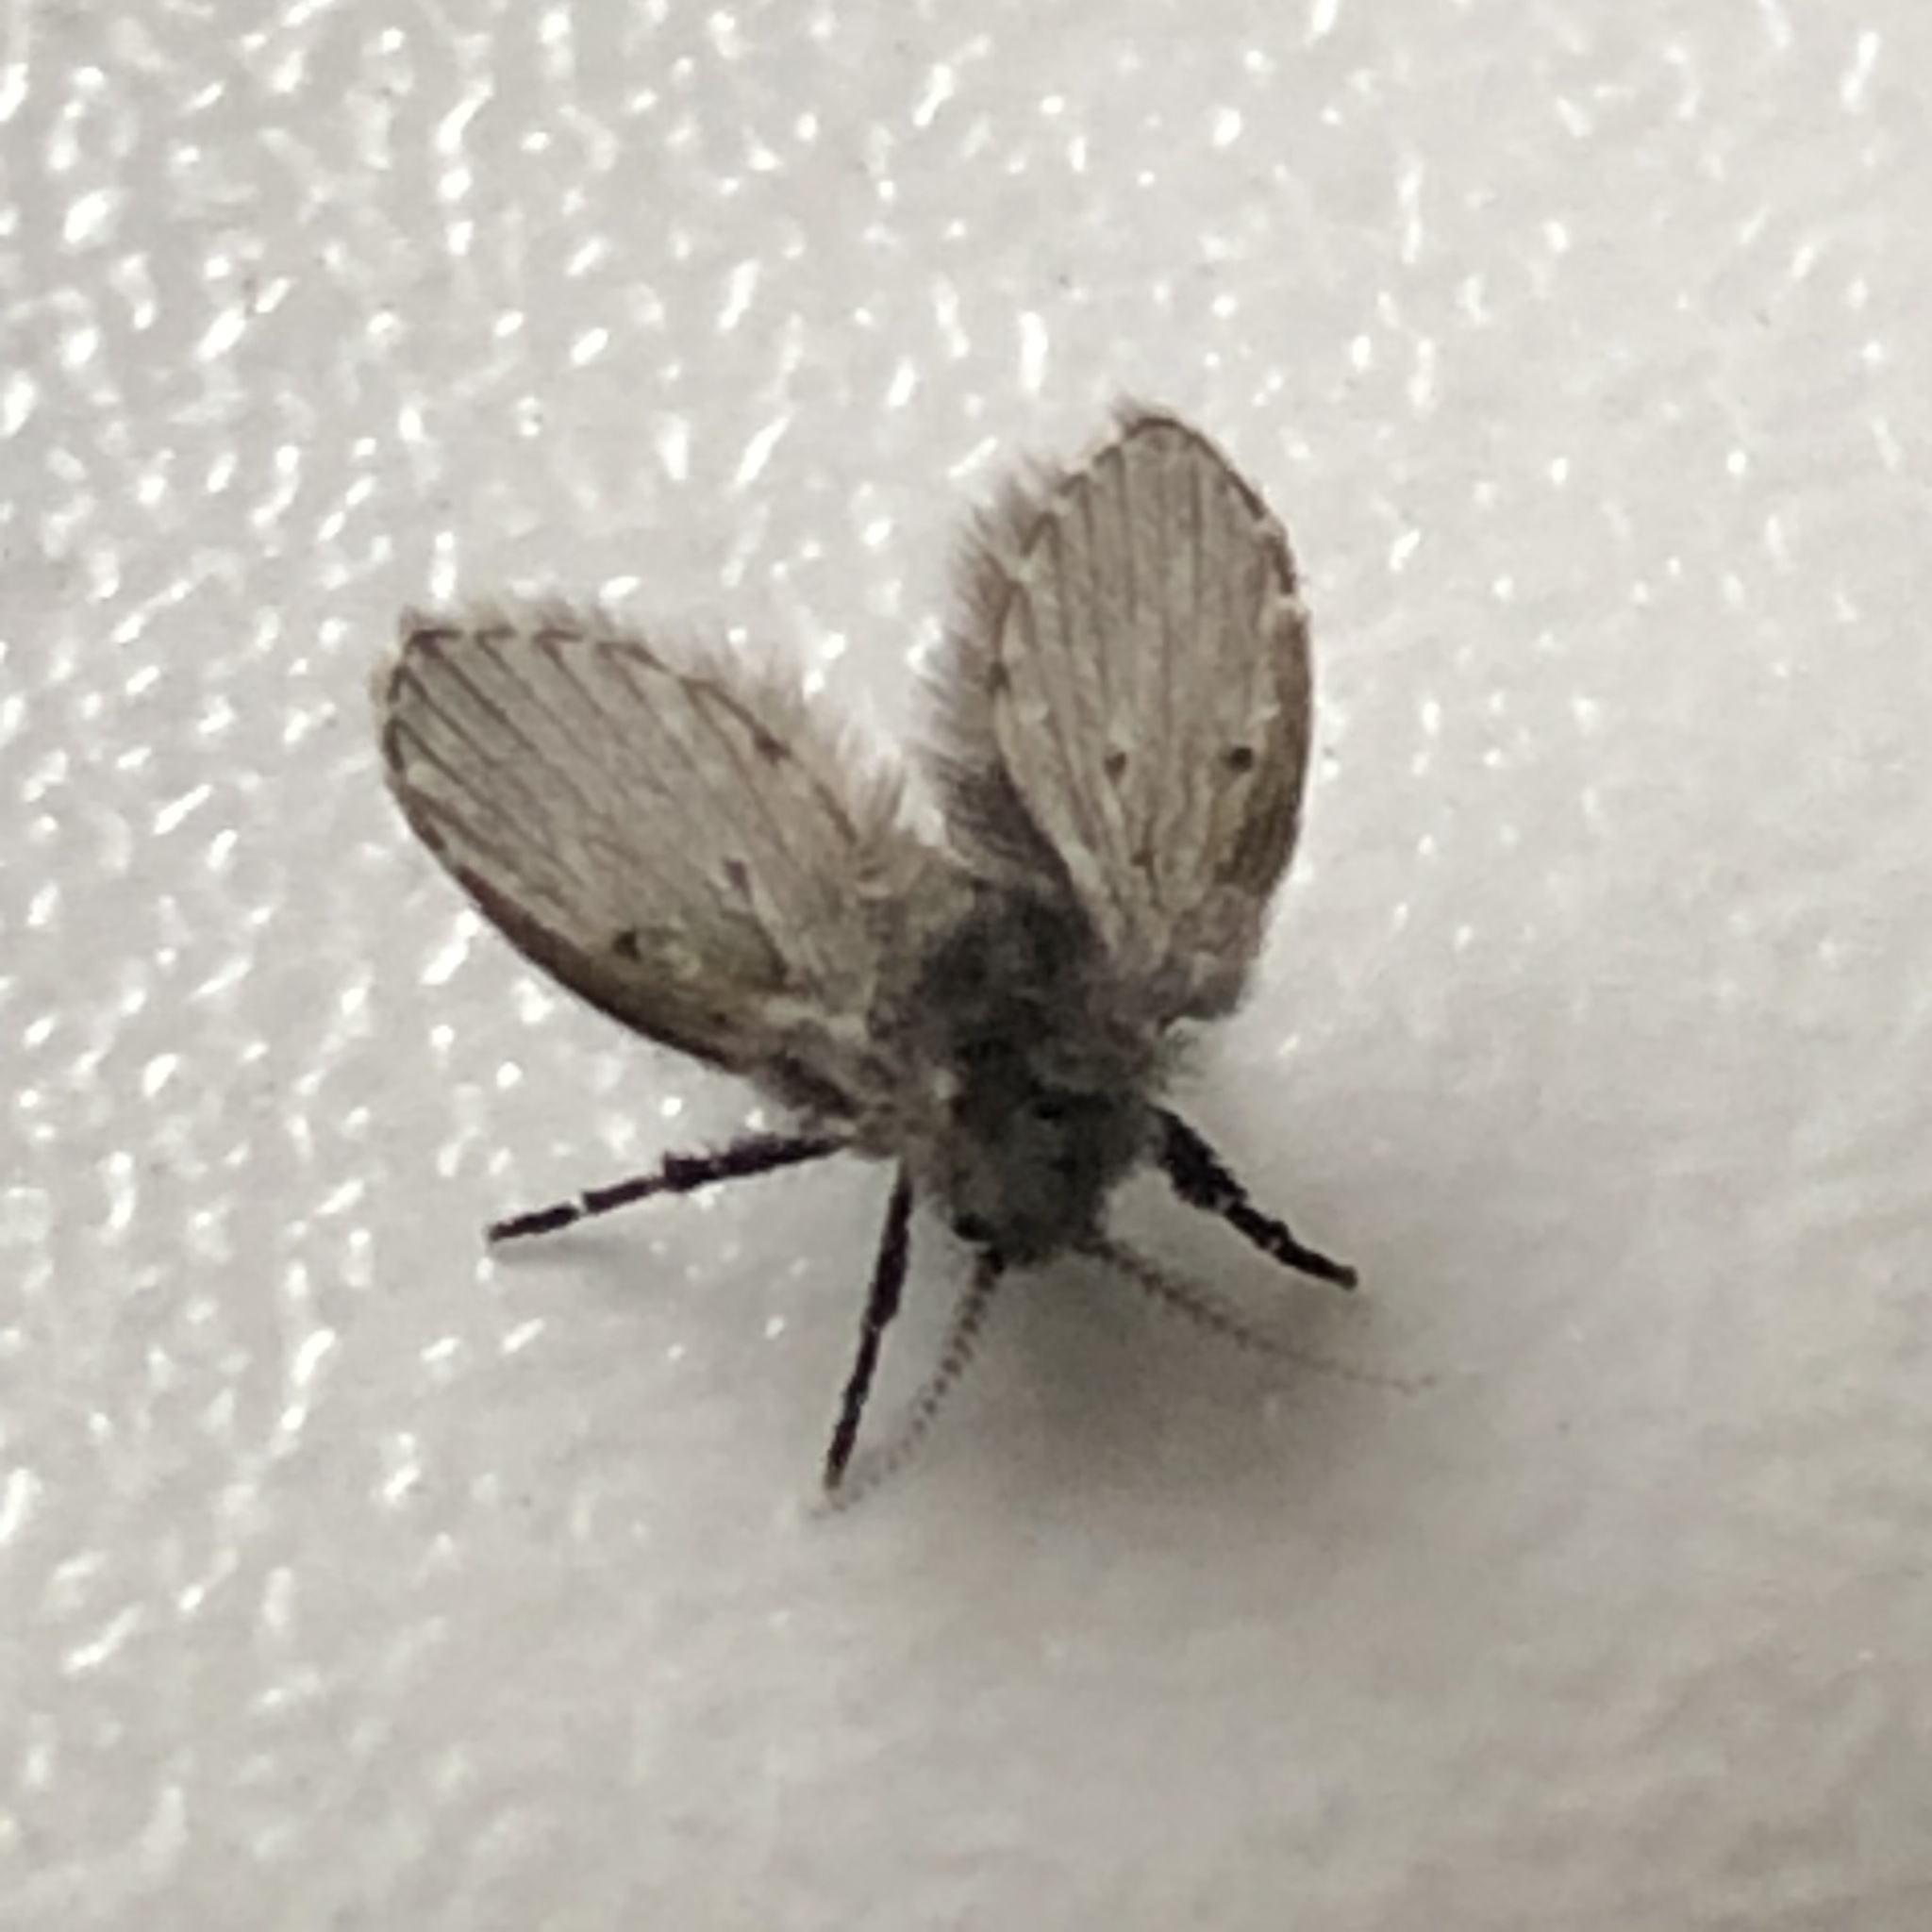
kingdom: Animalia
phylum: Arthropoda
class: Insecta
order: Diptera
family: Psychodidae
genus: Clogmia
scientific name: Clogmia albipunctatus
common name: White-spotted moth fly
